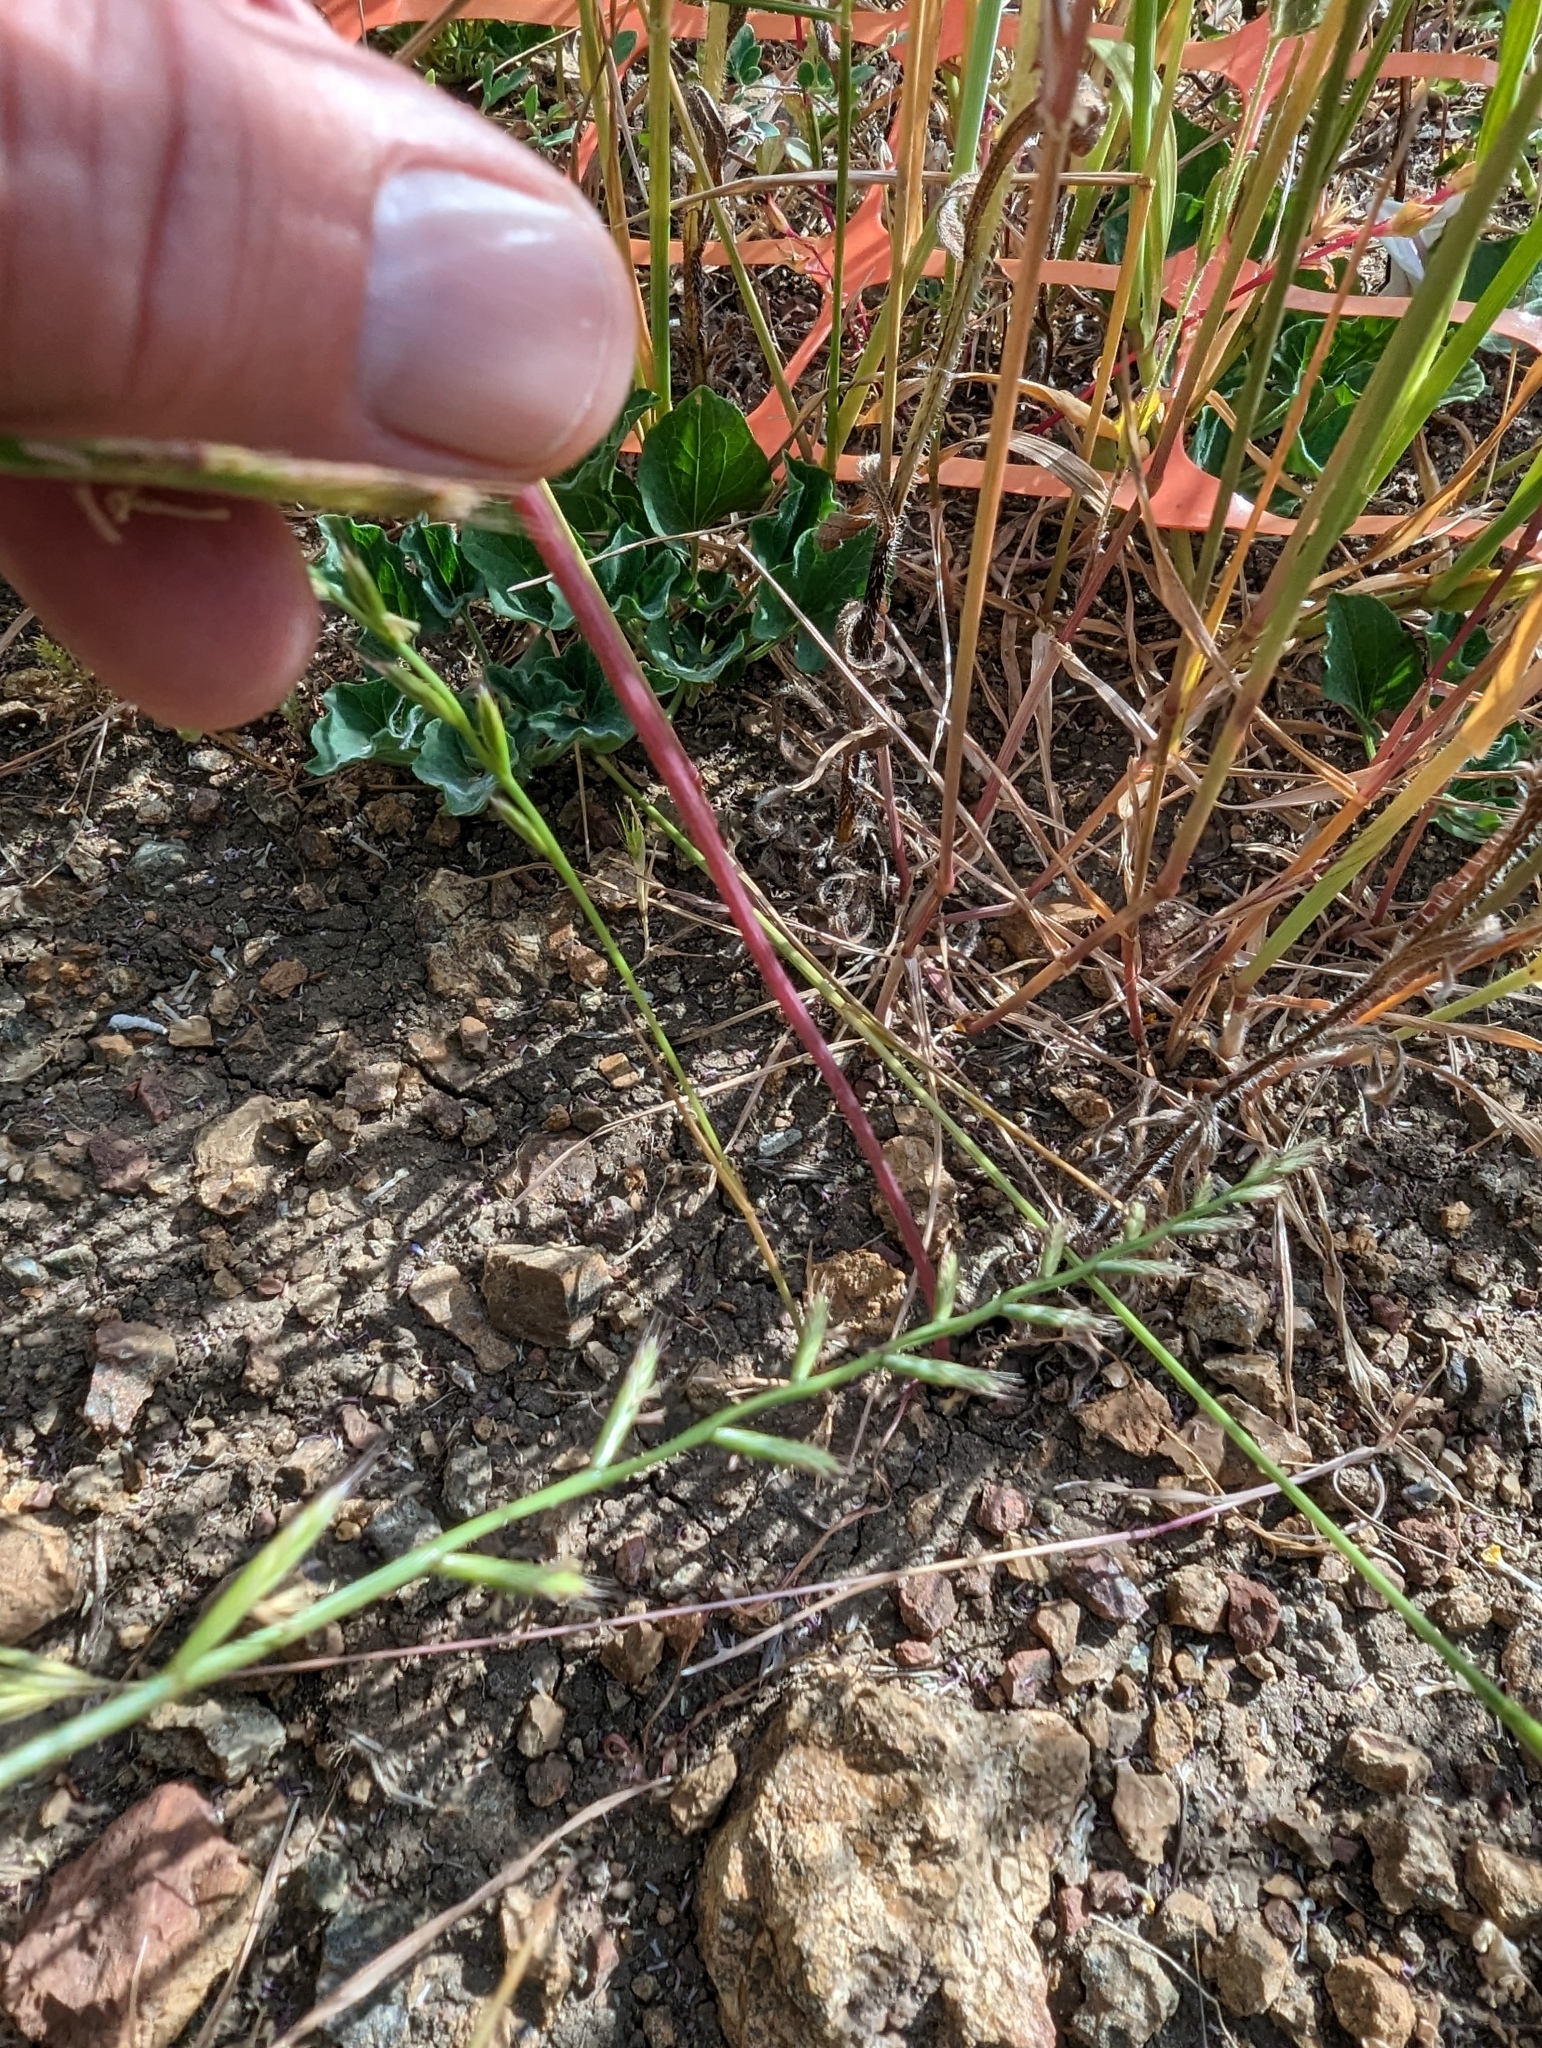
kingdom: Plantae
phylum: Tracheophyta
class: Liliopsida
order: Asparagales
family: Amaryllidaceae
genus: Allium
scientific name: Allium serra
